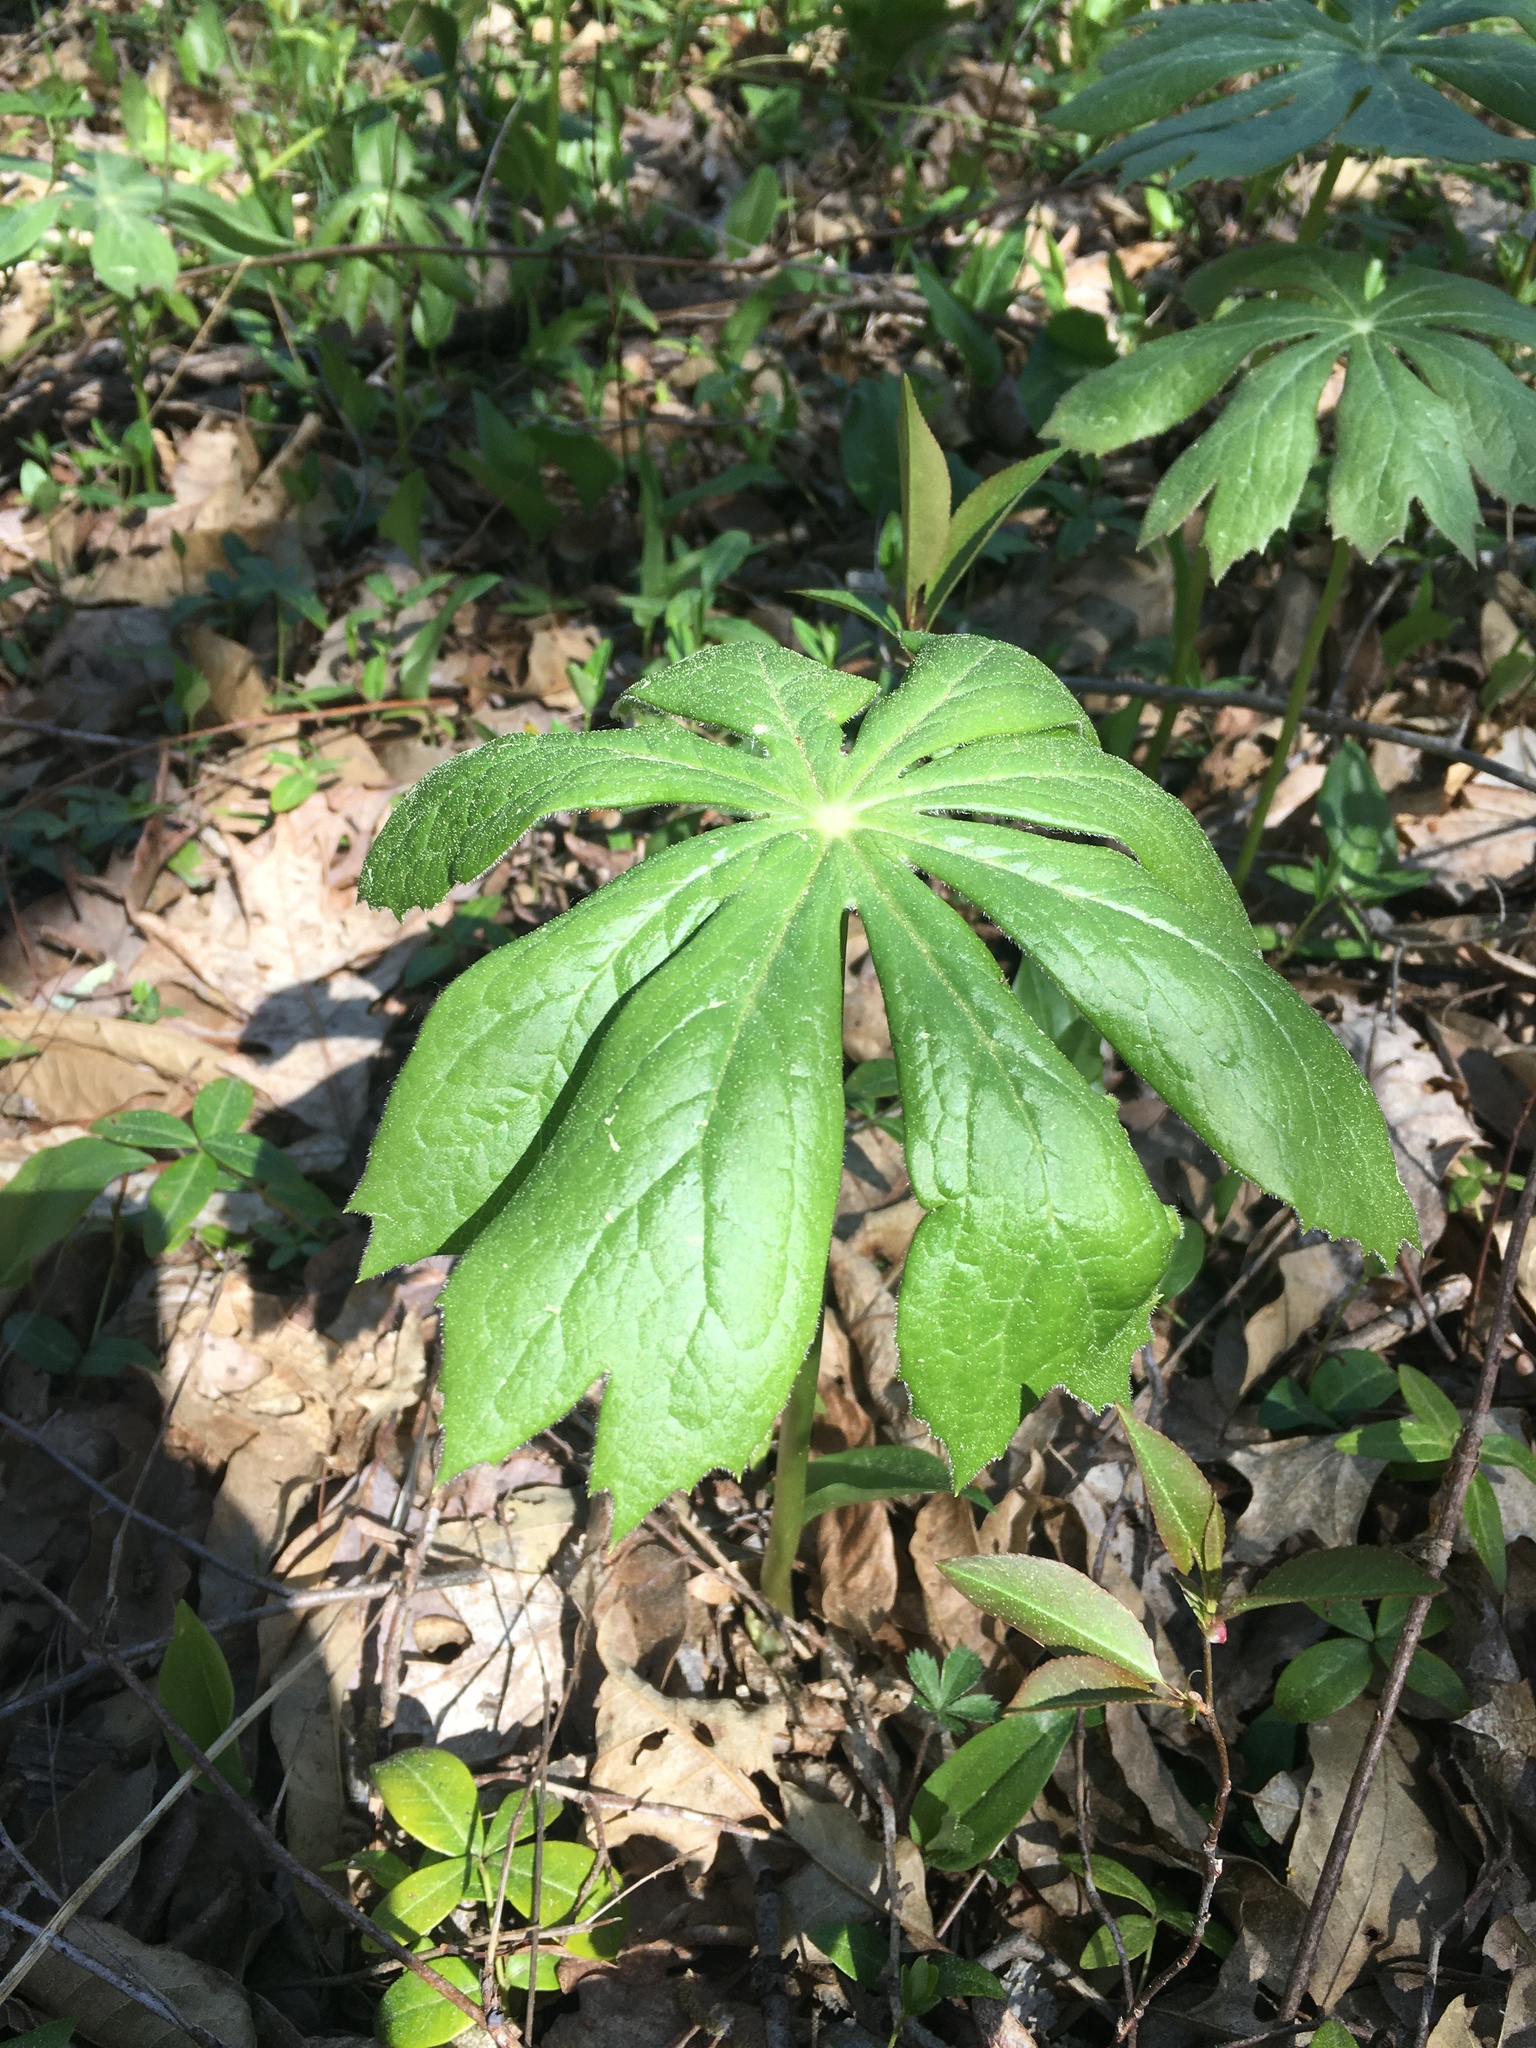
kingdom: Plantae
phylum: Tracheophyta
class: Magnoliopsida
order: Ranunculales
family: Berberidaceae
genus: Podophyllum
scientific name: Podophyllum peltatum
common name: Wild mandrake
